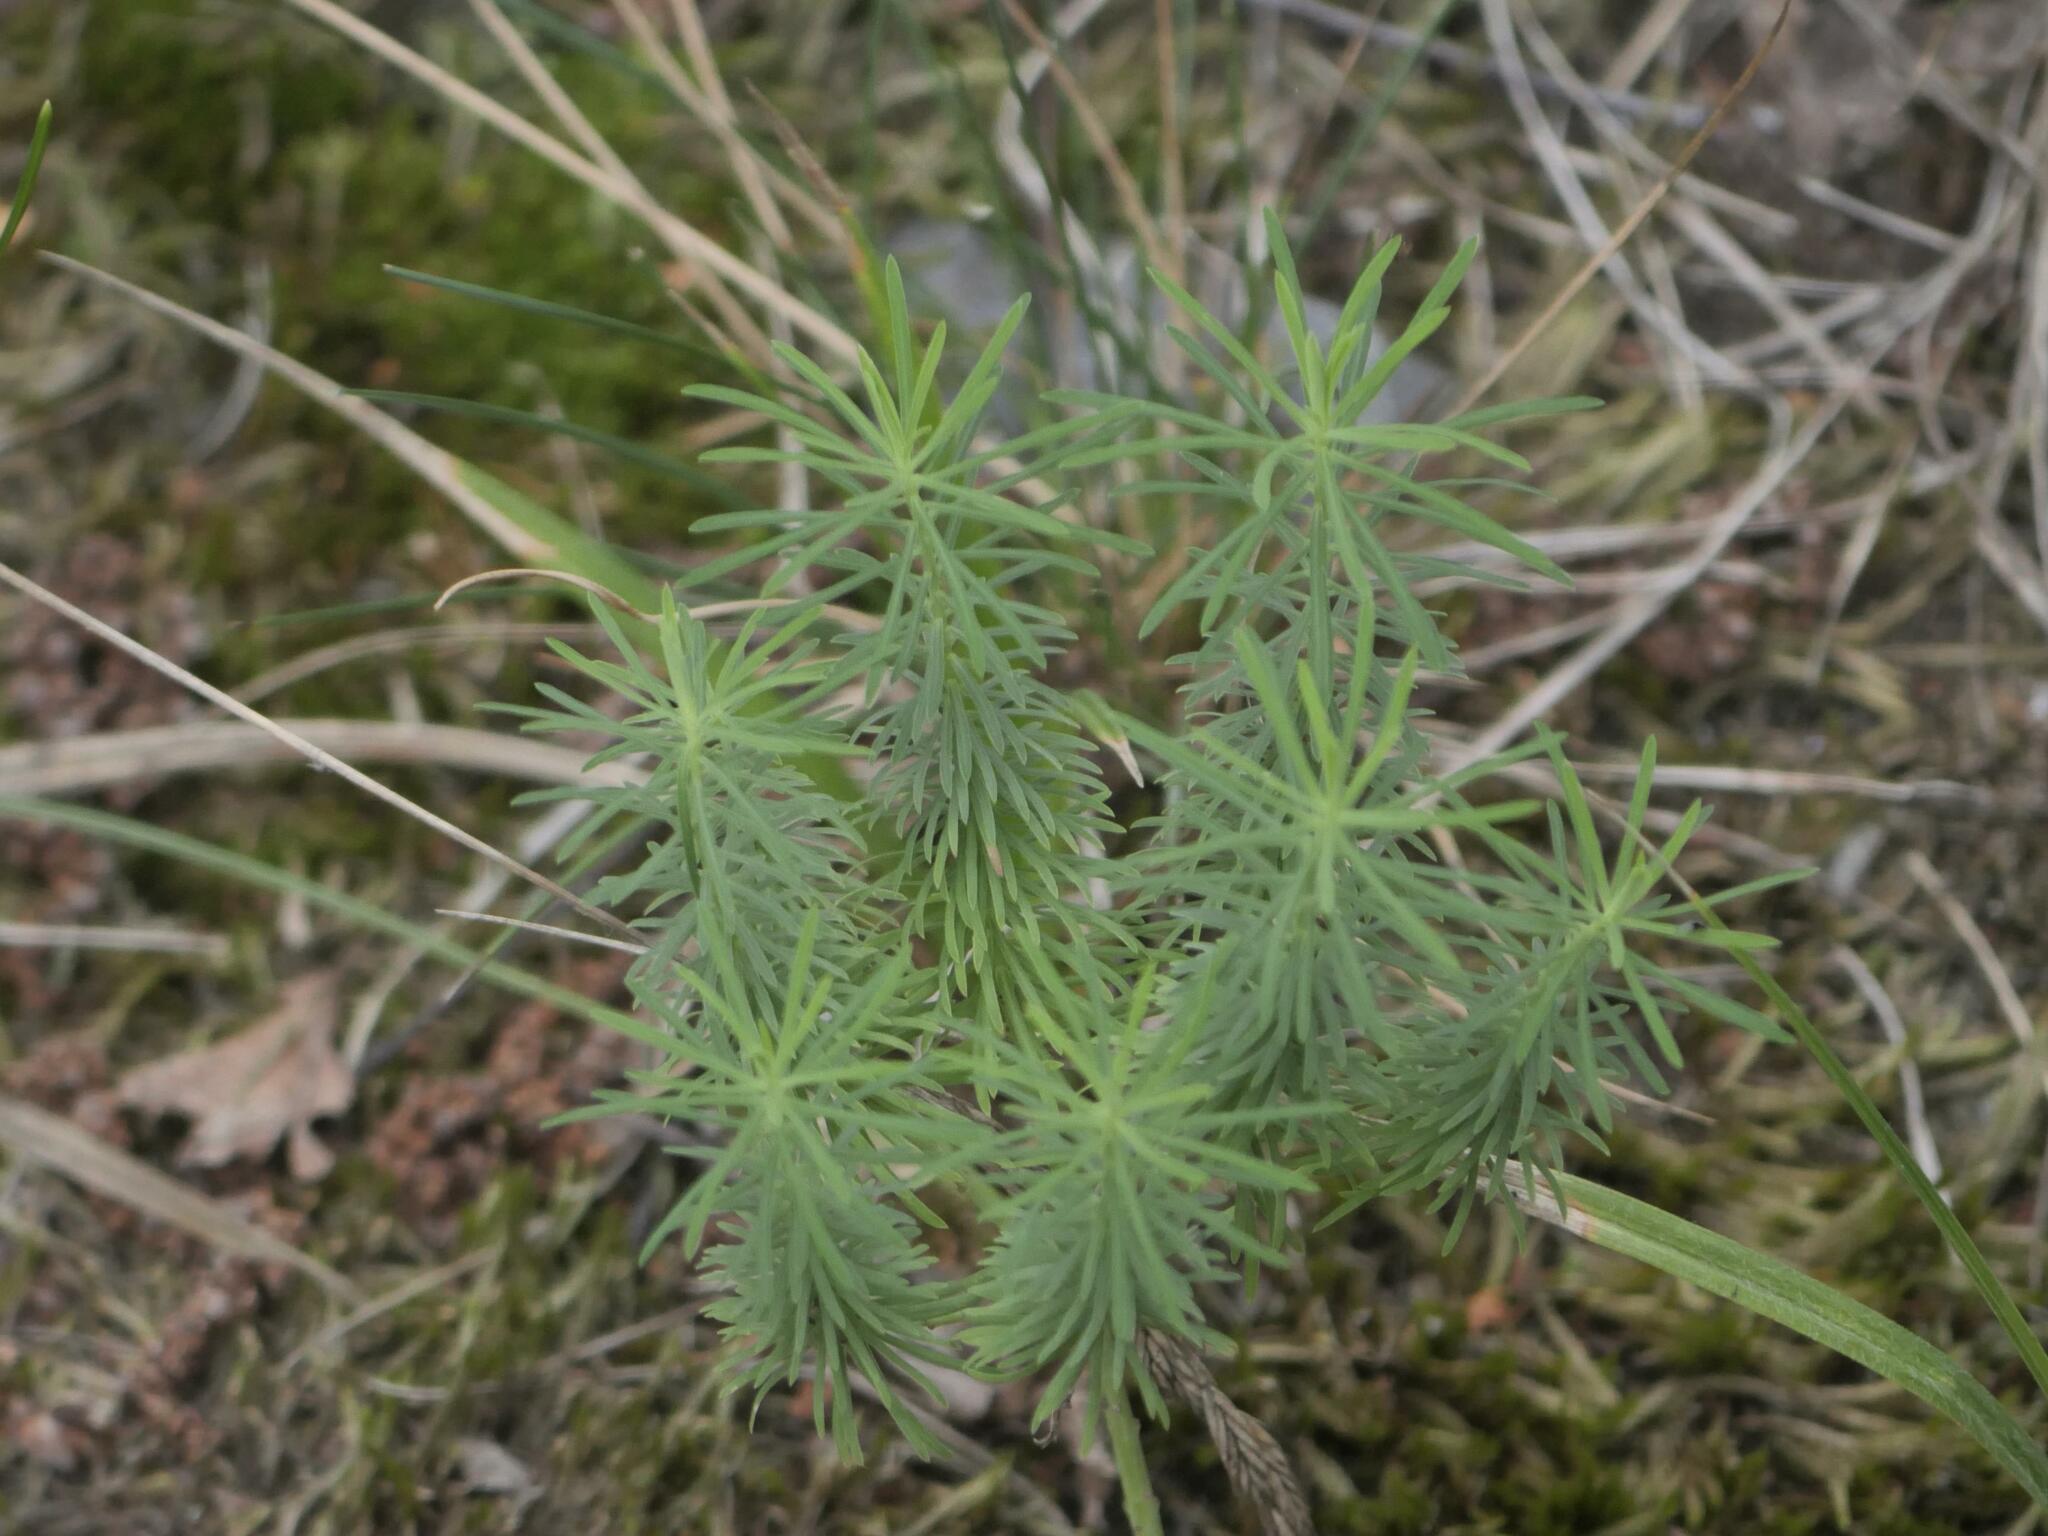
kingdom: Plantae
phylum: Tracheophyta
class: Magnoliopsida
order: Malpighiales
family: Euphorbiaceae
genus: Euphorbia
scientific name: Euphorbia cyparissias
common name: Cypress spurge
